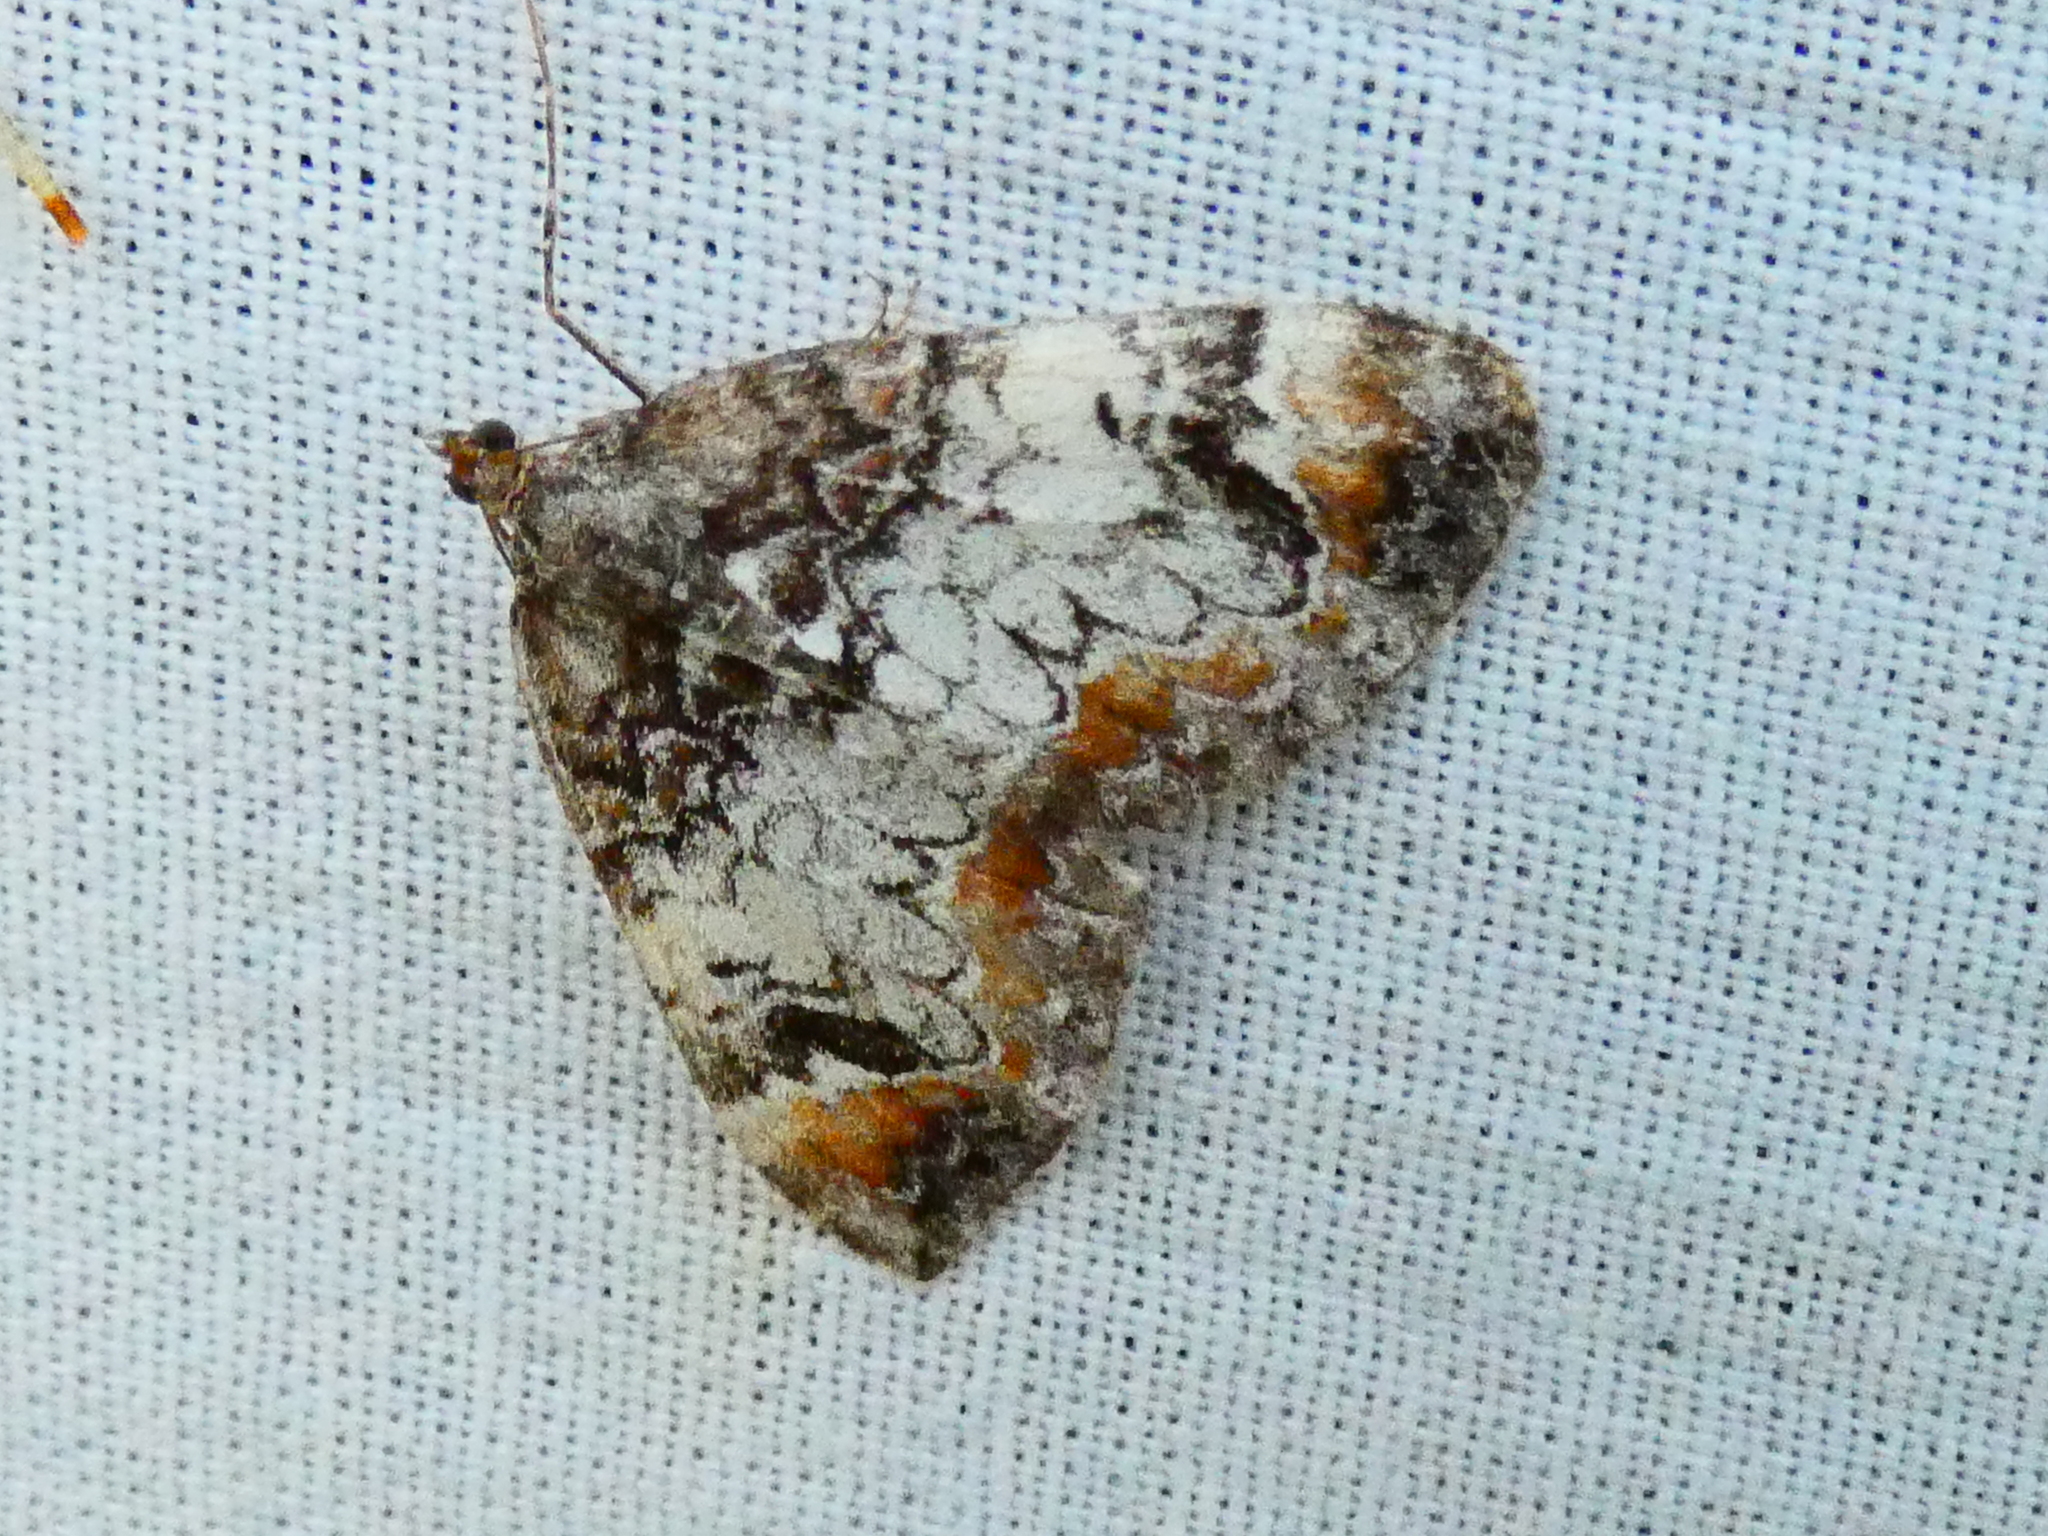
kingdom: Animalia
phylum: Arthropoda
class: Insecta
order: Lepidoptera
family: Geometridae
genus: Dysstroma
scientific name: Dysstroma citrata
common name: Dark marbled carpet
